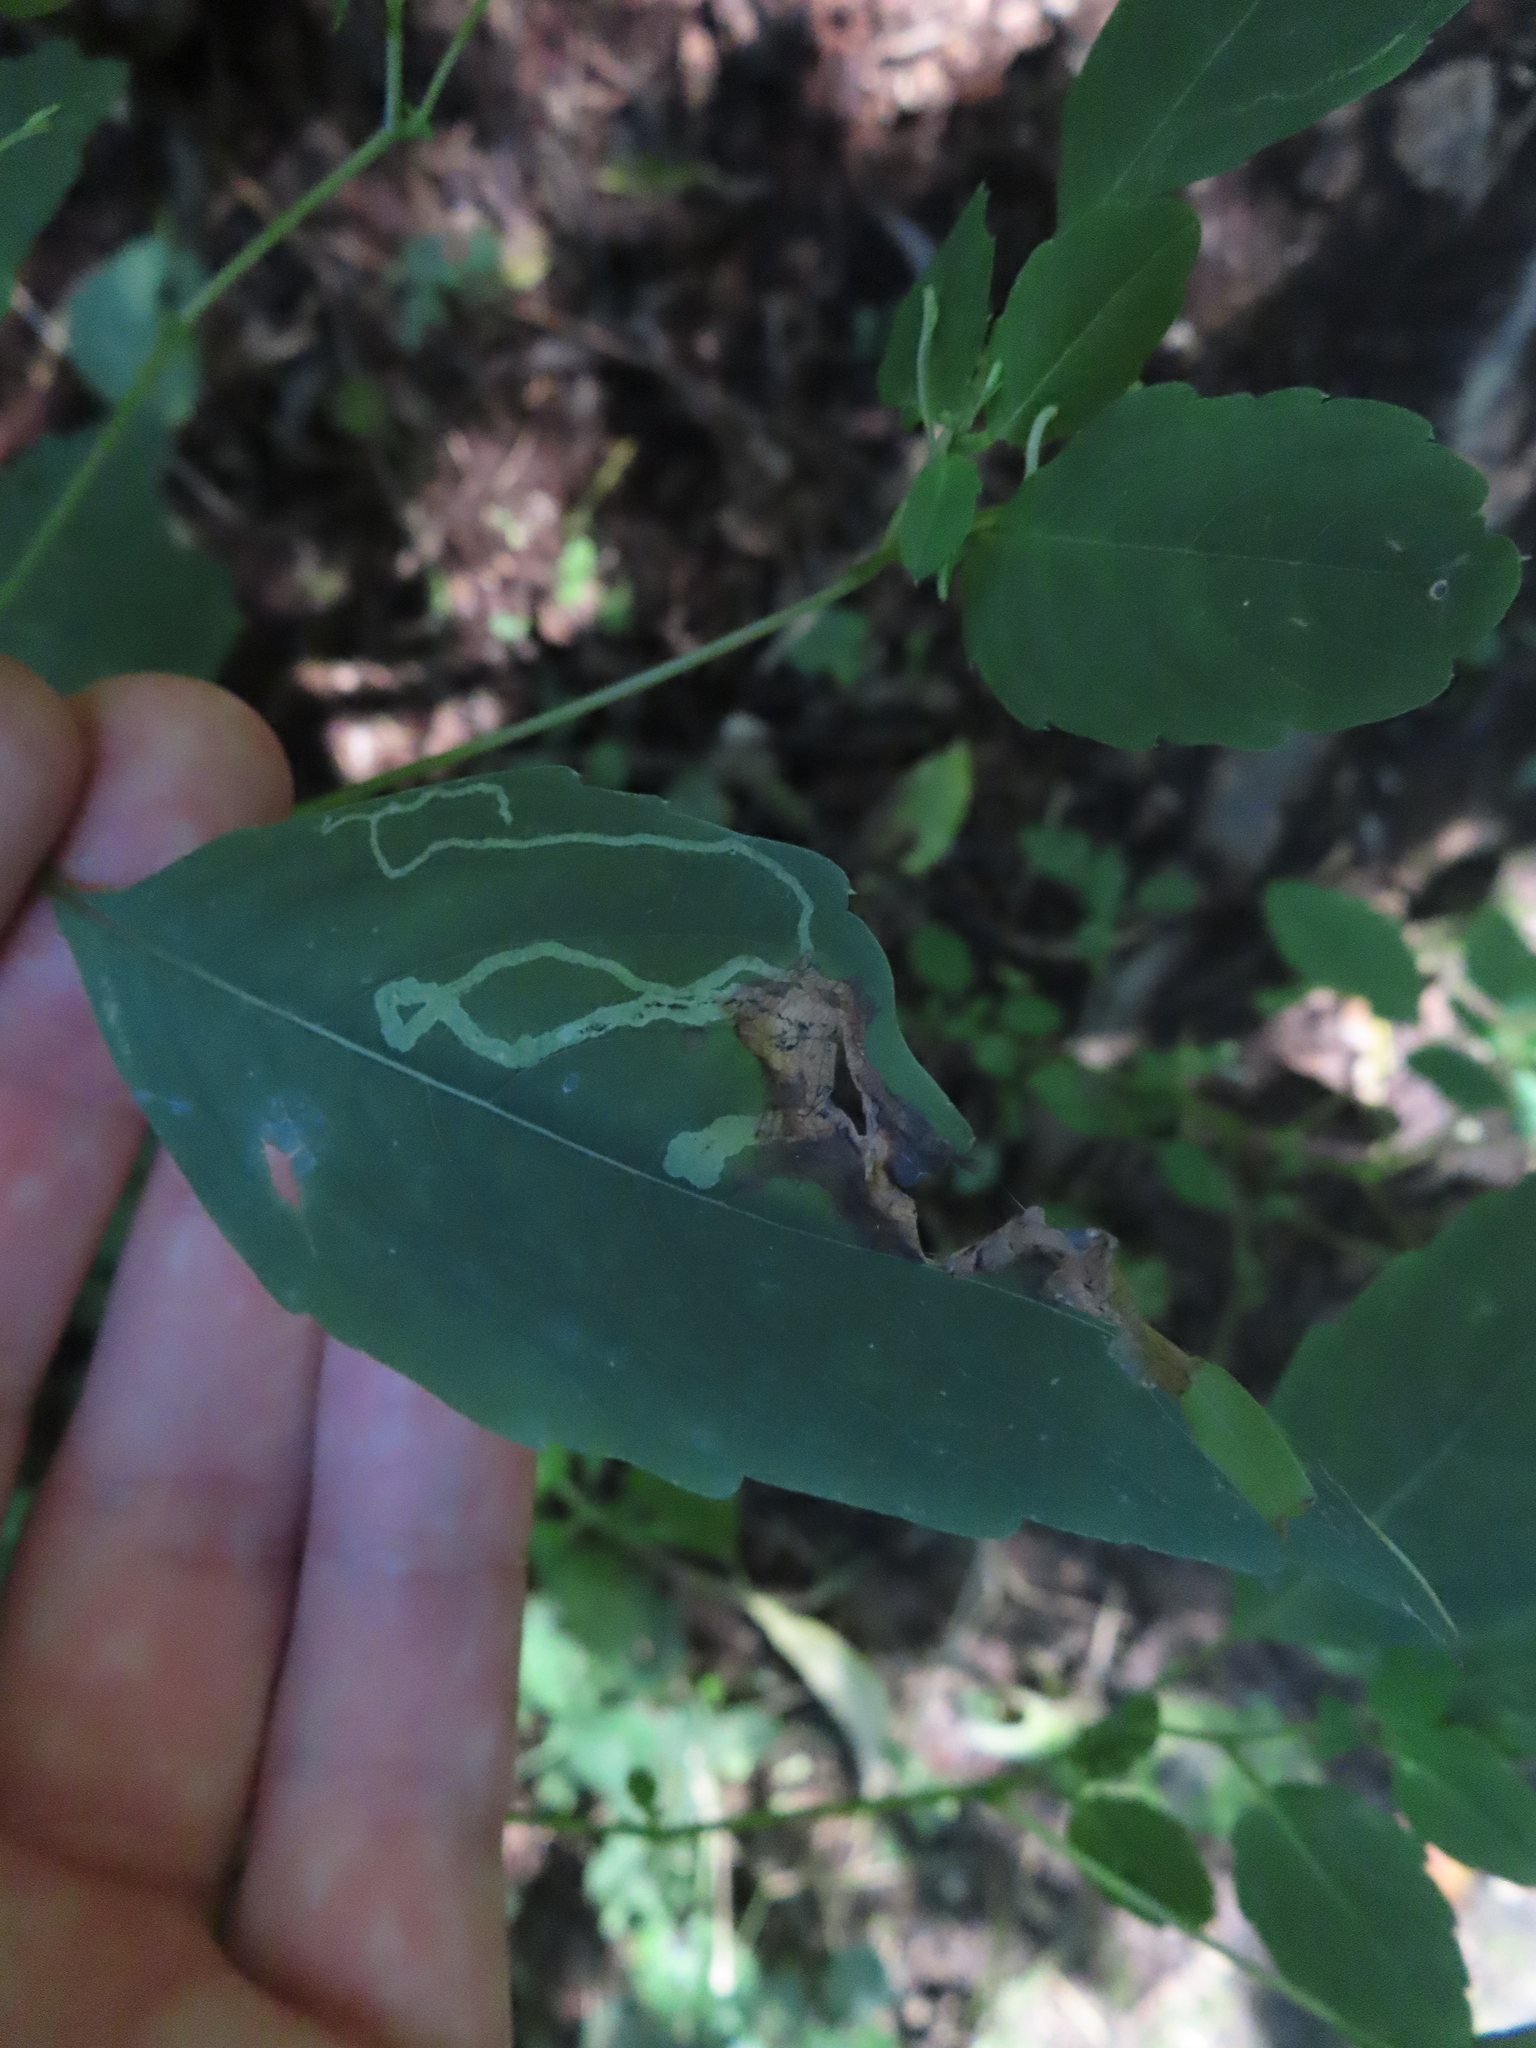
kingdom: Animalia
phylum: Arthropoda
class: Insecta
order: Diptera
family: Agromyzidae
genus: Phytoliriomyza
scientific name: Phytoliriomyza melampyga
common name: Jewelweed leaf-miner fly
